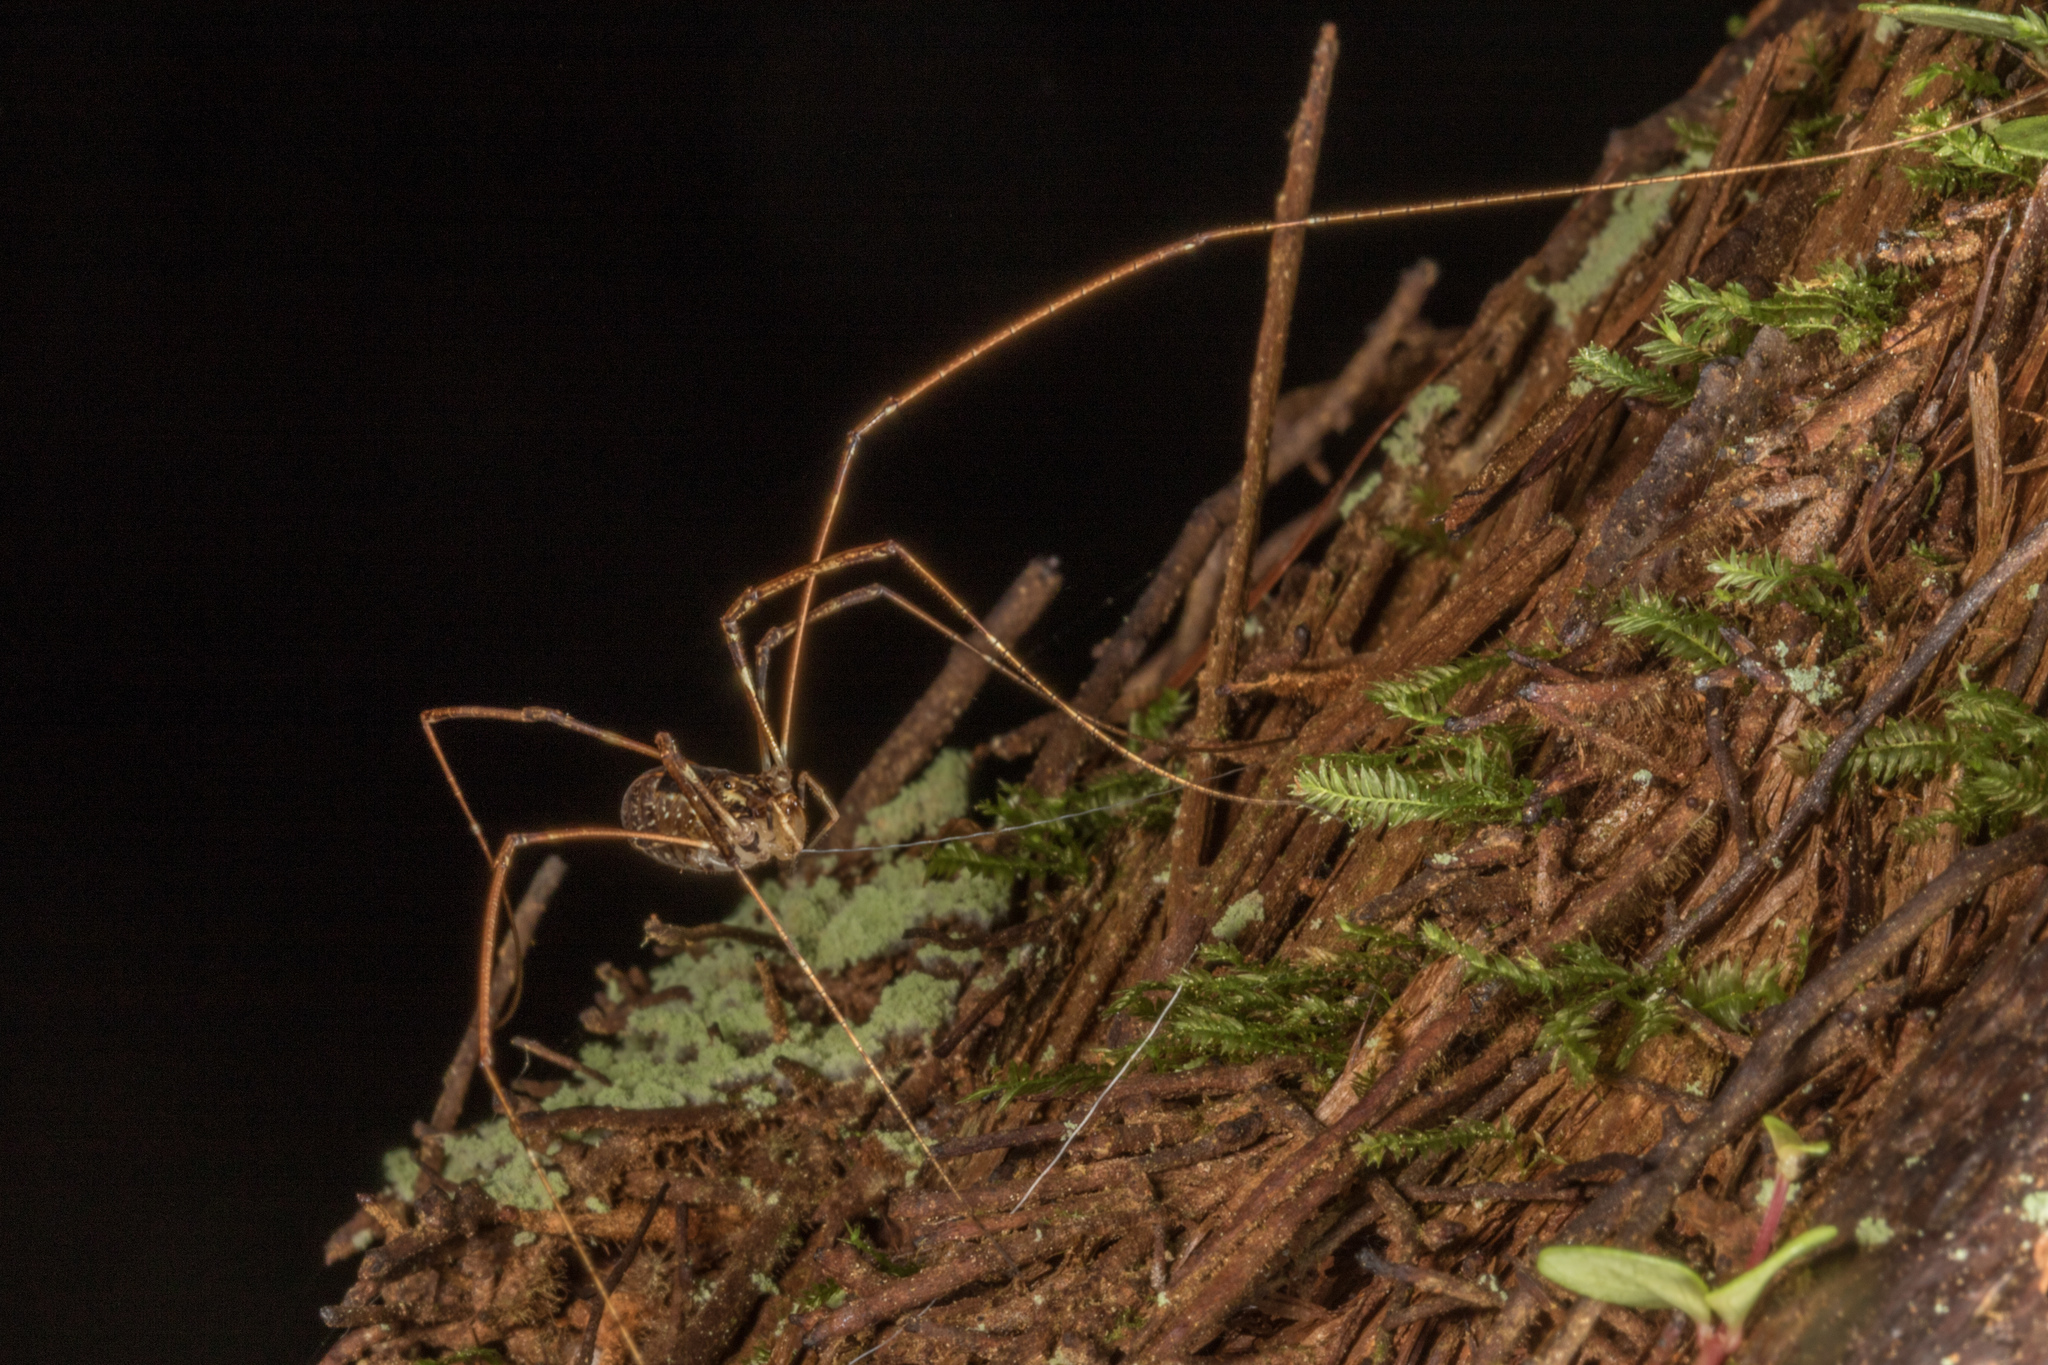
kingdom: Animalia
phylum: Arthropoda
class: Arachnida
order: Opiliones
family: Neopilionidae
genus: Forsteropsalis
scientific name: Forsteropsalis pureora
